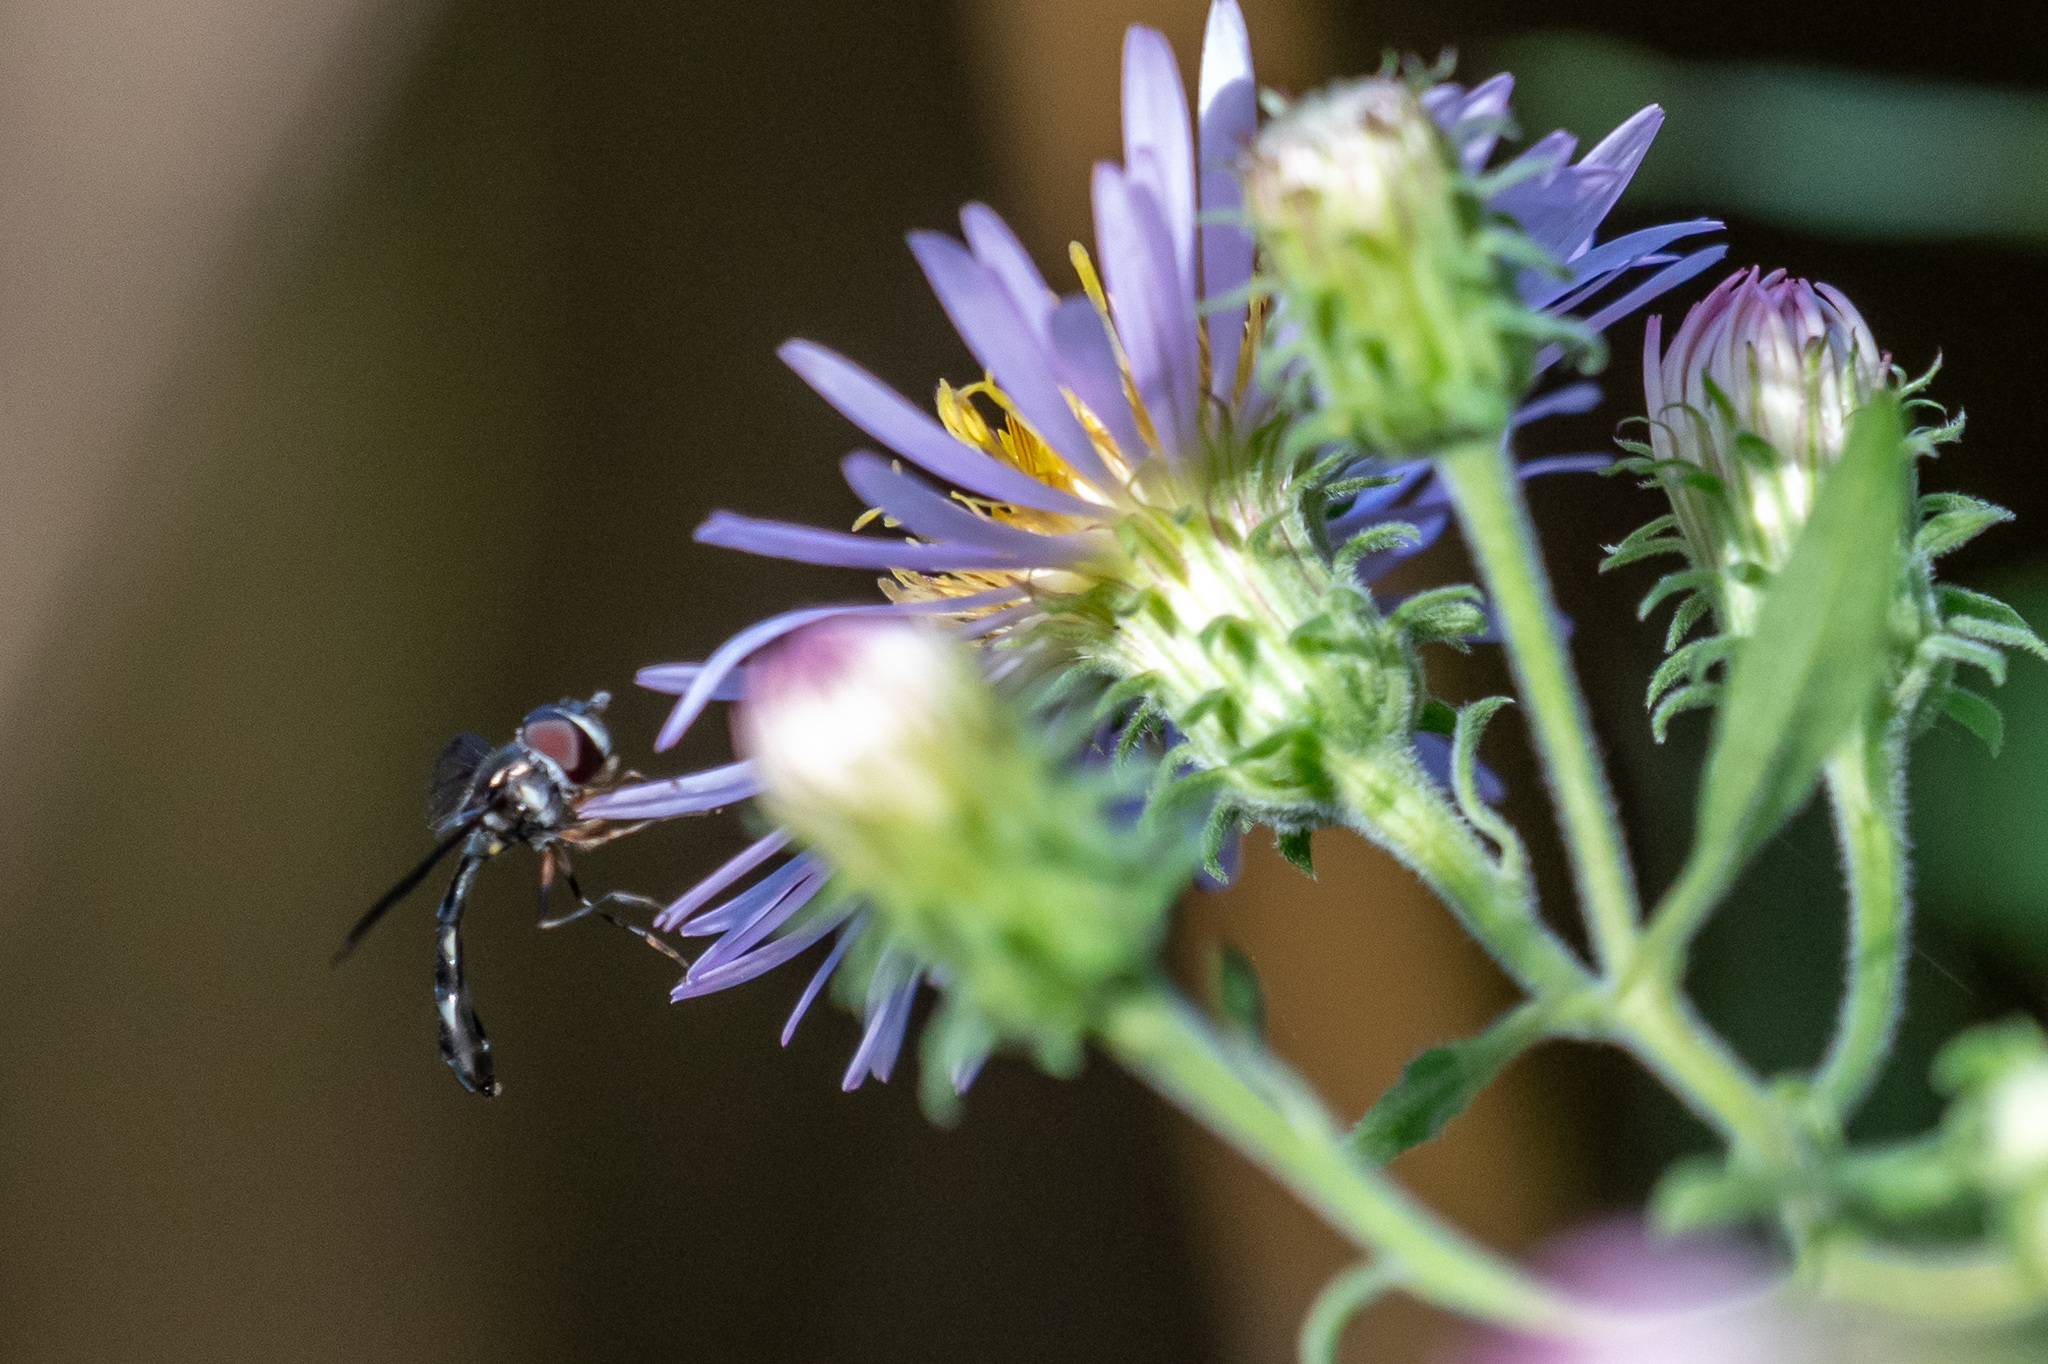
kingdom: Animalia
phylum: Arthropoda
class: Insecta
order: Diptera
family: Syrphidae
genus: Ocyptamus
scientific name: Ocyptamus costatus
